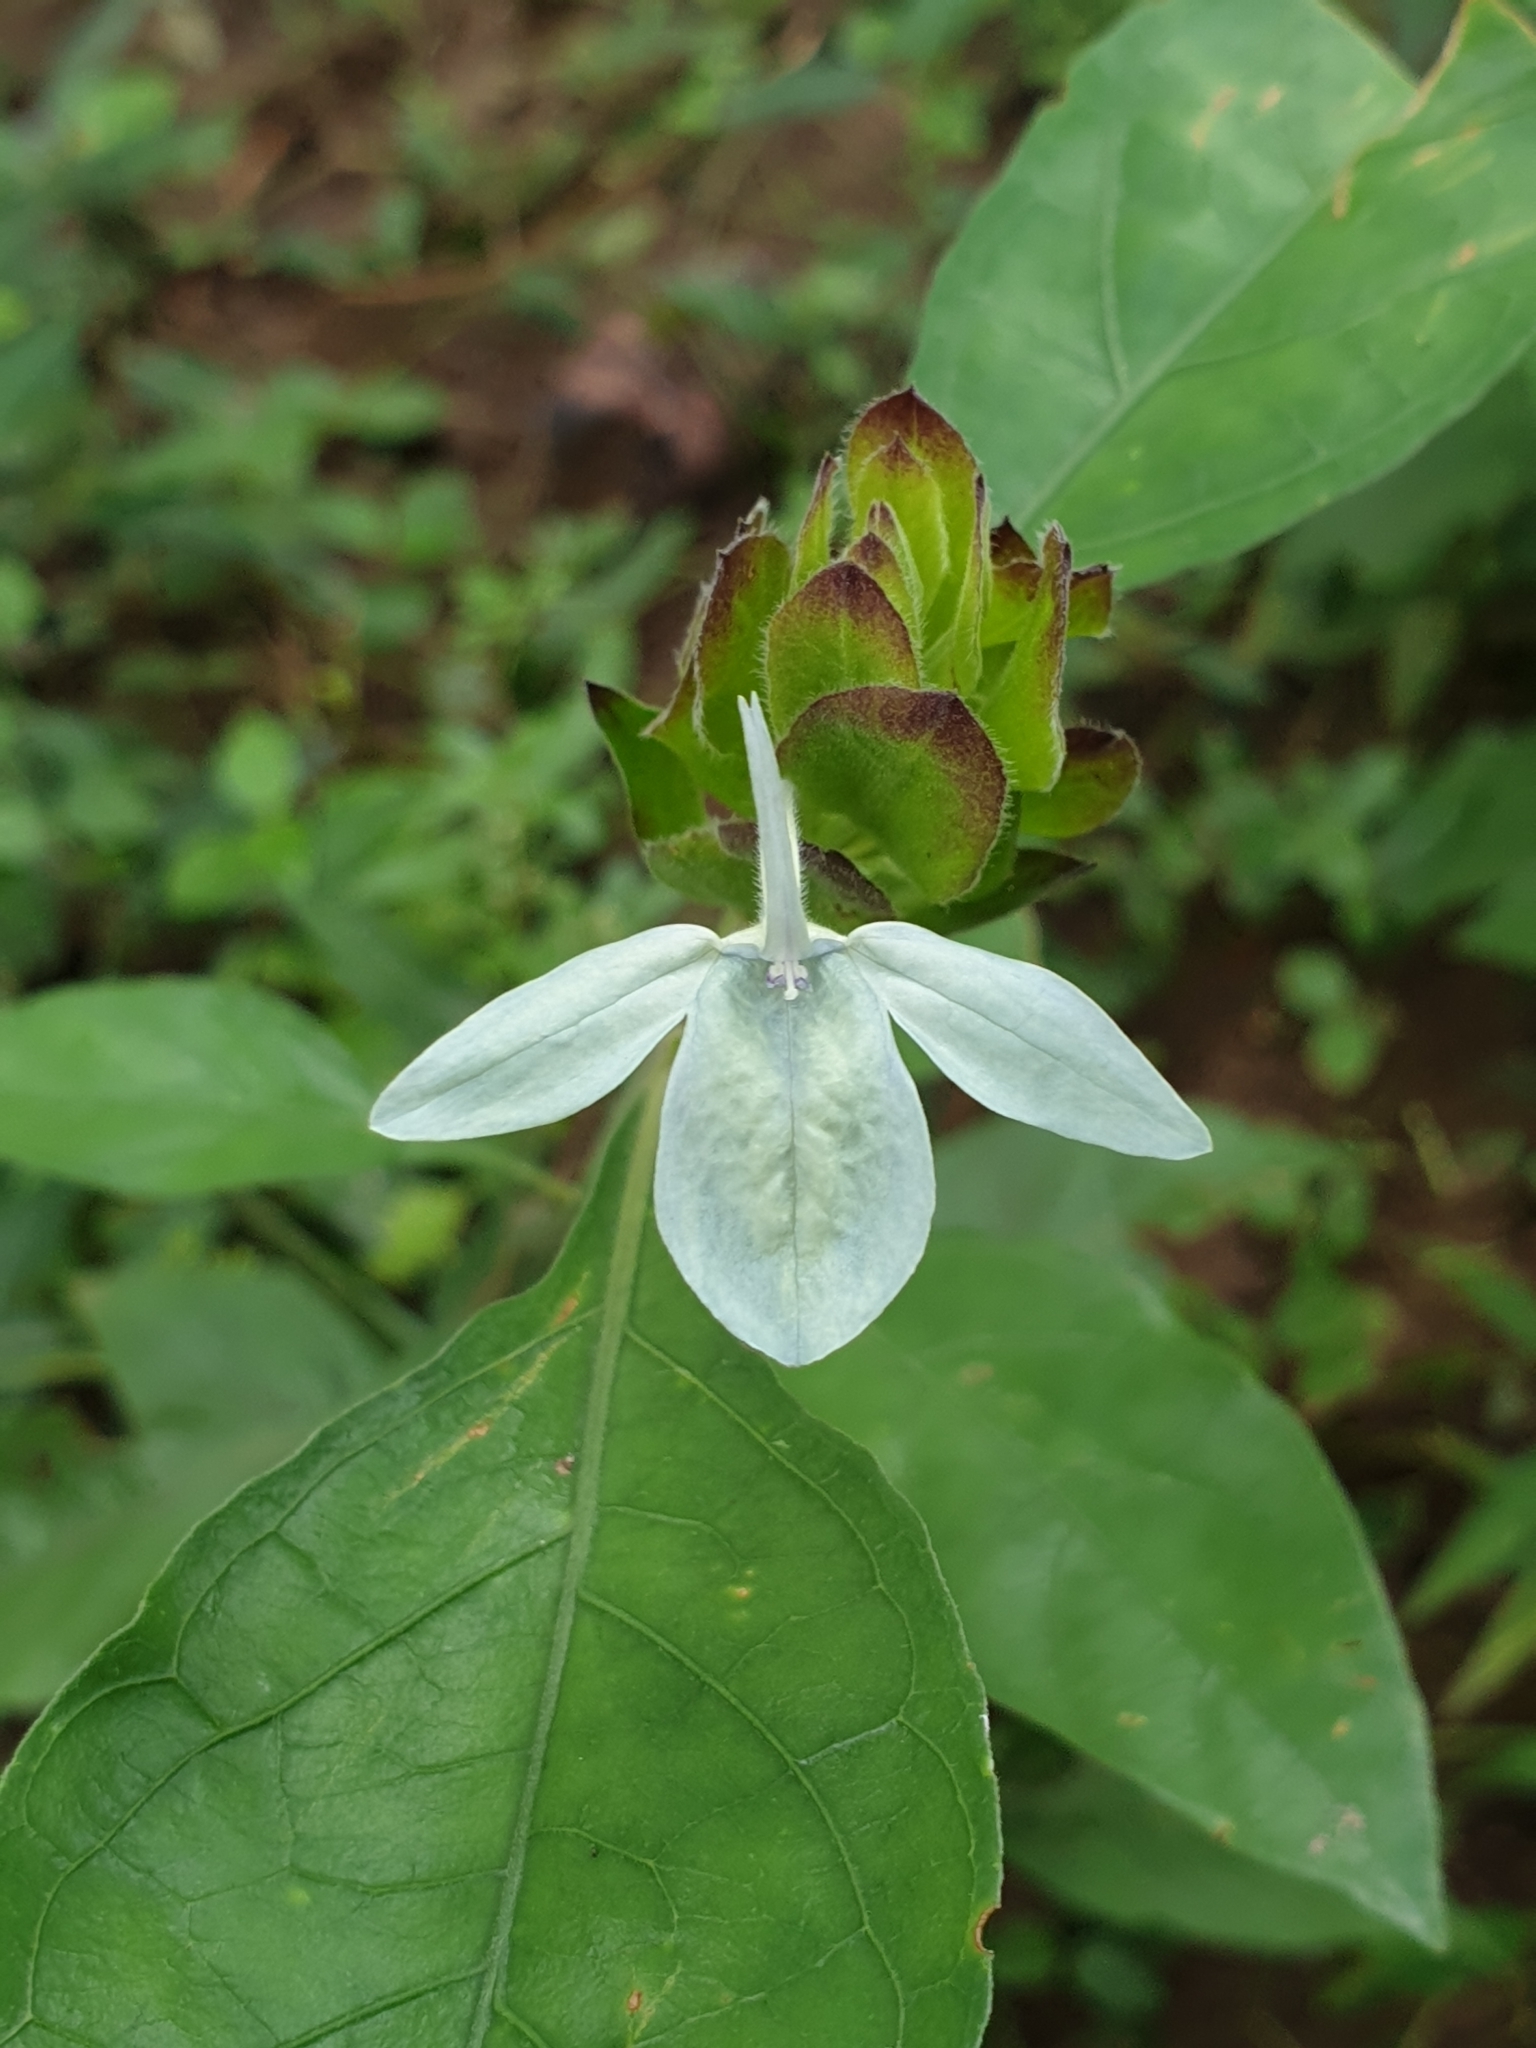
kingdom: Plantae
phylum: Tracheophyta
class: Magnoliopsida
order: Lamiales
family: Acanthaceae
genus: Ecbolium
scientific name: Ecbolium ligustrinum
